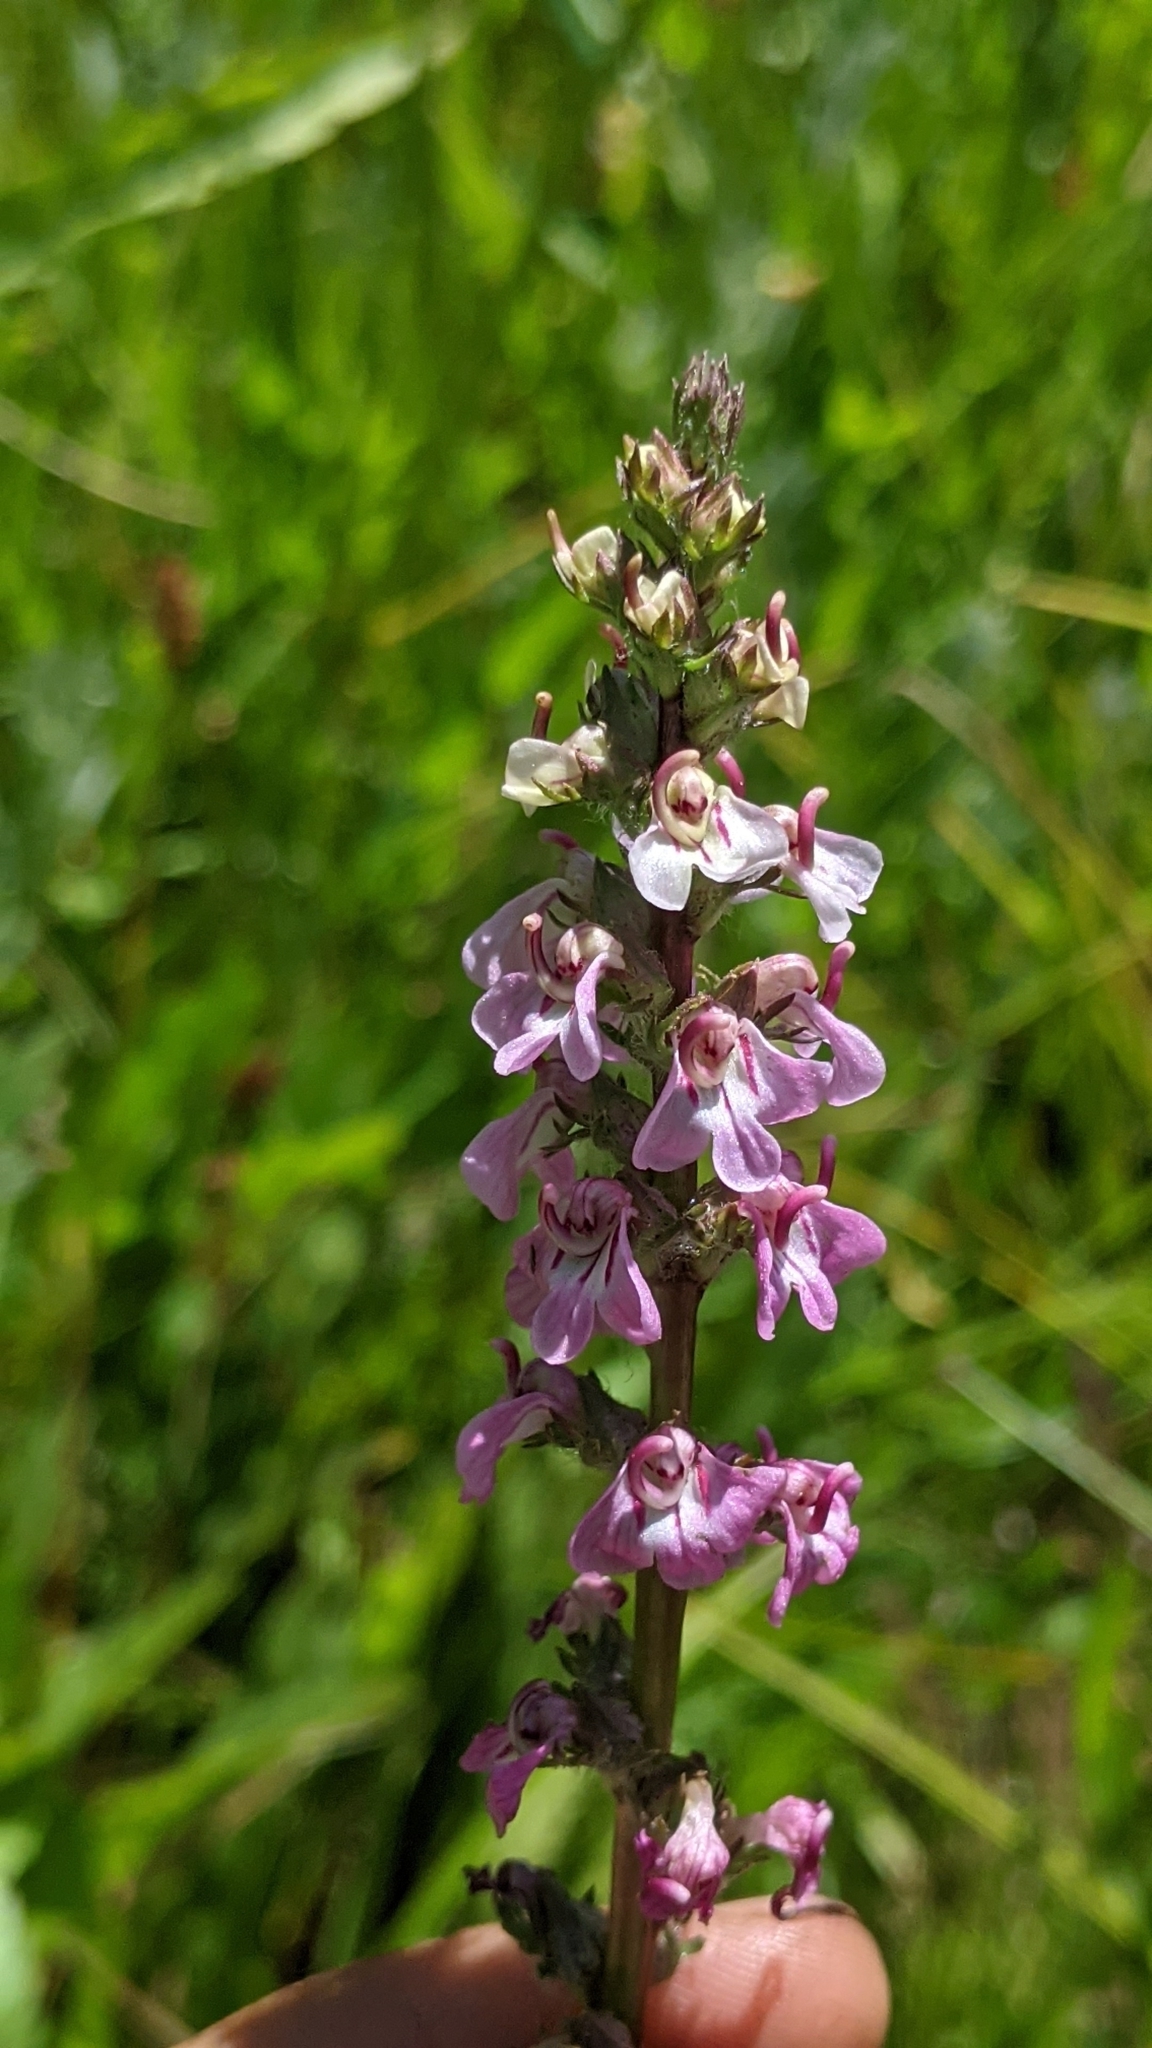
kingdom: Plantae
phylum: Tracheophyta
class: Magnoliopsida
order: Lamiales
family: Orobanchaceae
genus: Pedicularis
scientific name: Pedicularis attollens
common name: Slender pedicularis
